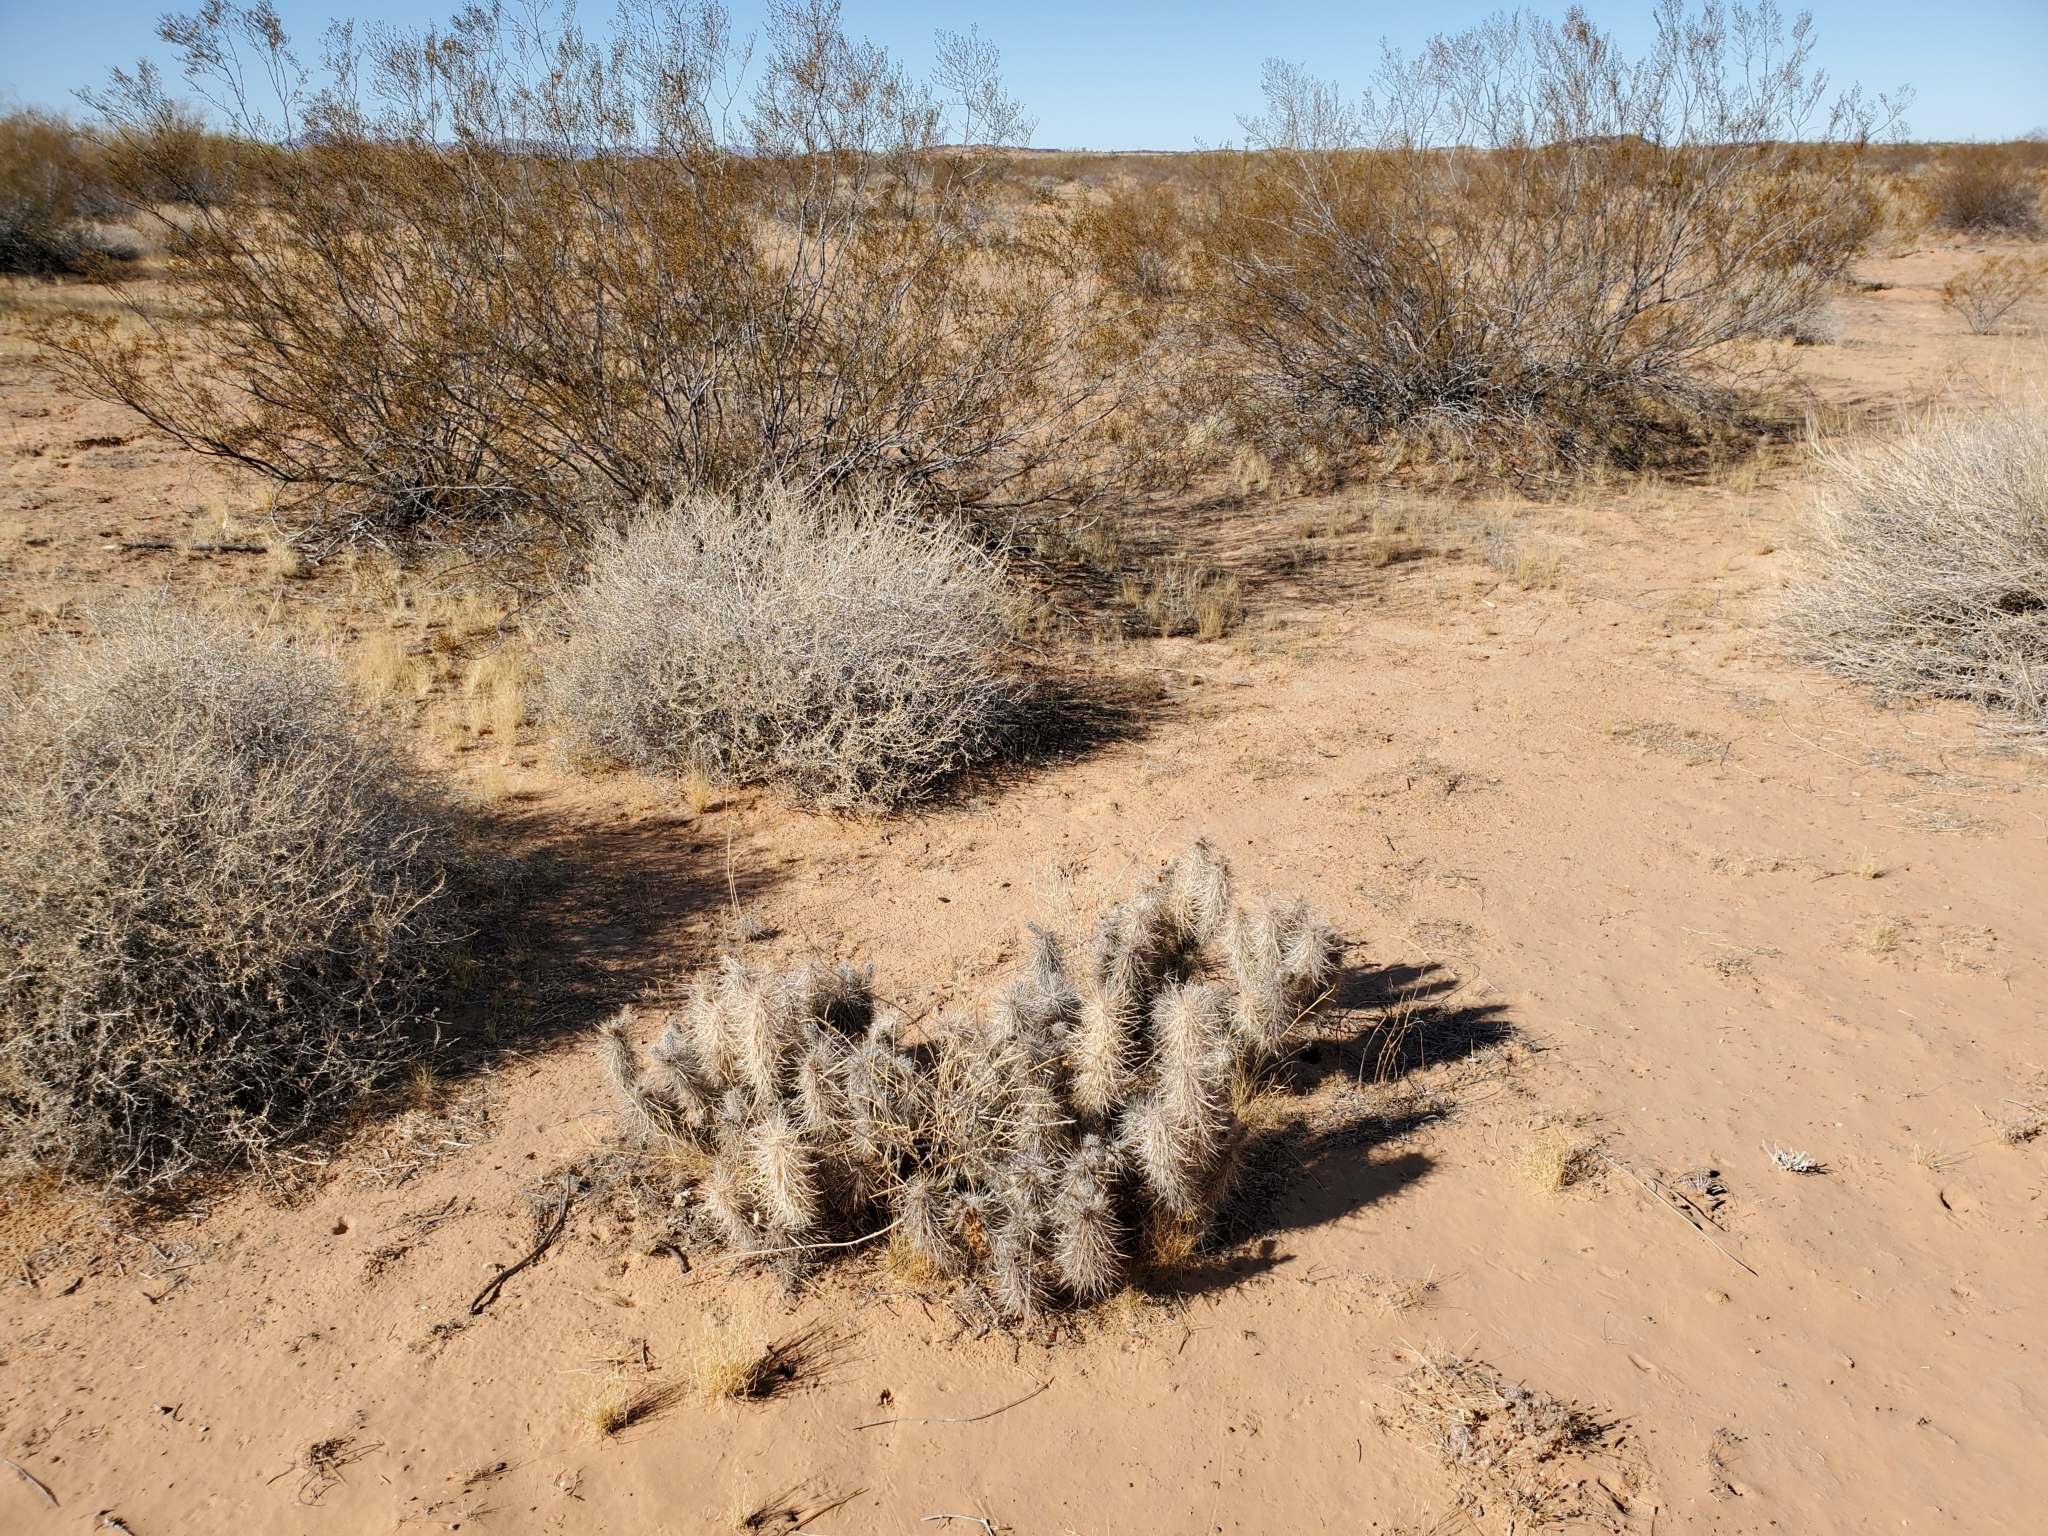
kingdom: Plantae
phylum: Tracheophyta
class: Magnoliopsida
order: Caryophyllales
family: Cactaceae
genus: Grusonia
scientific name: Grusonia kunzei
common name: Wright's club cholla
